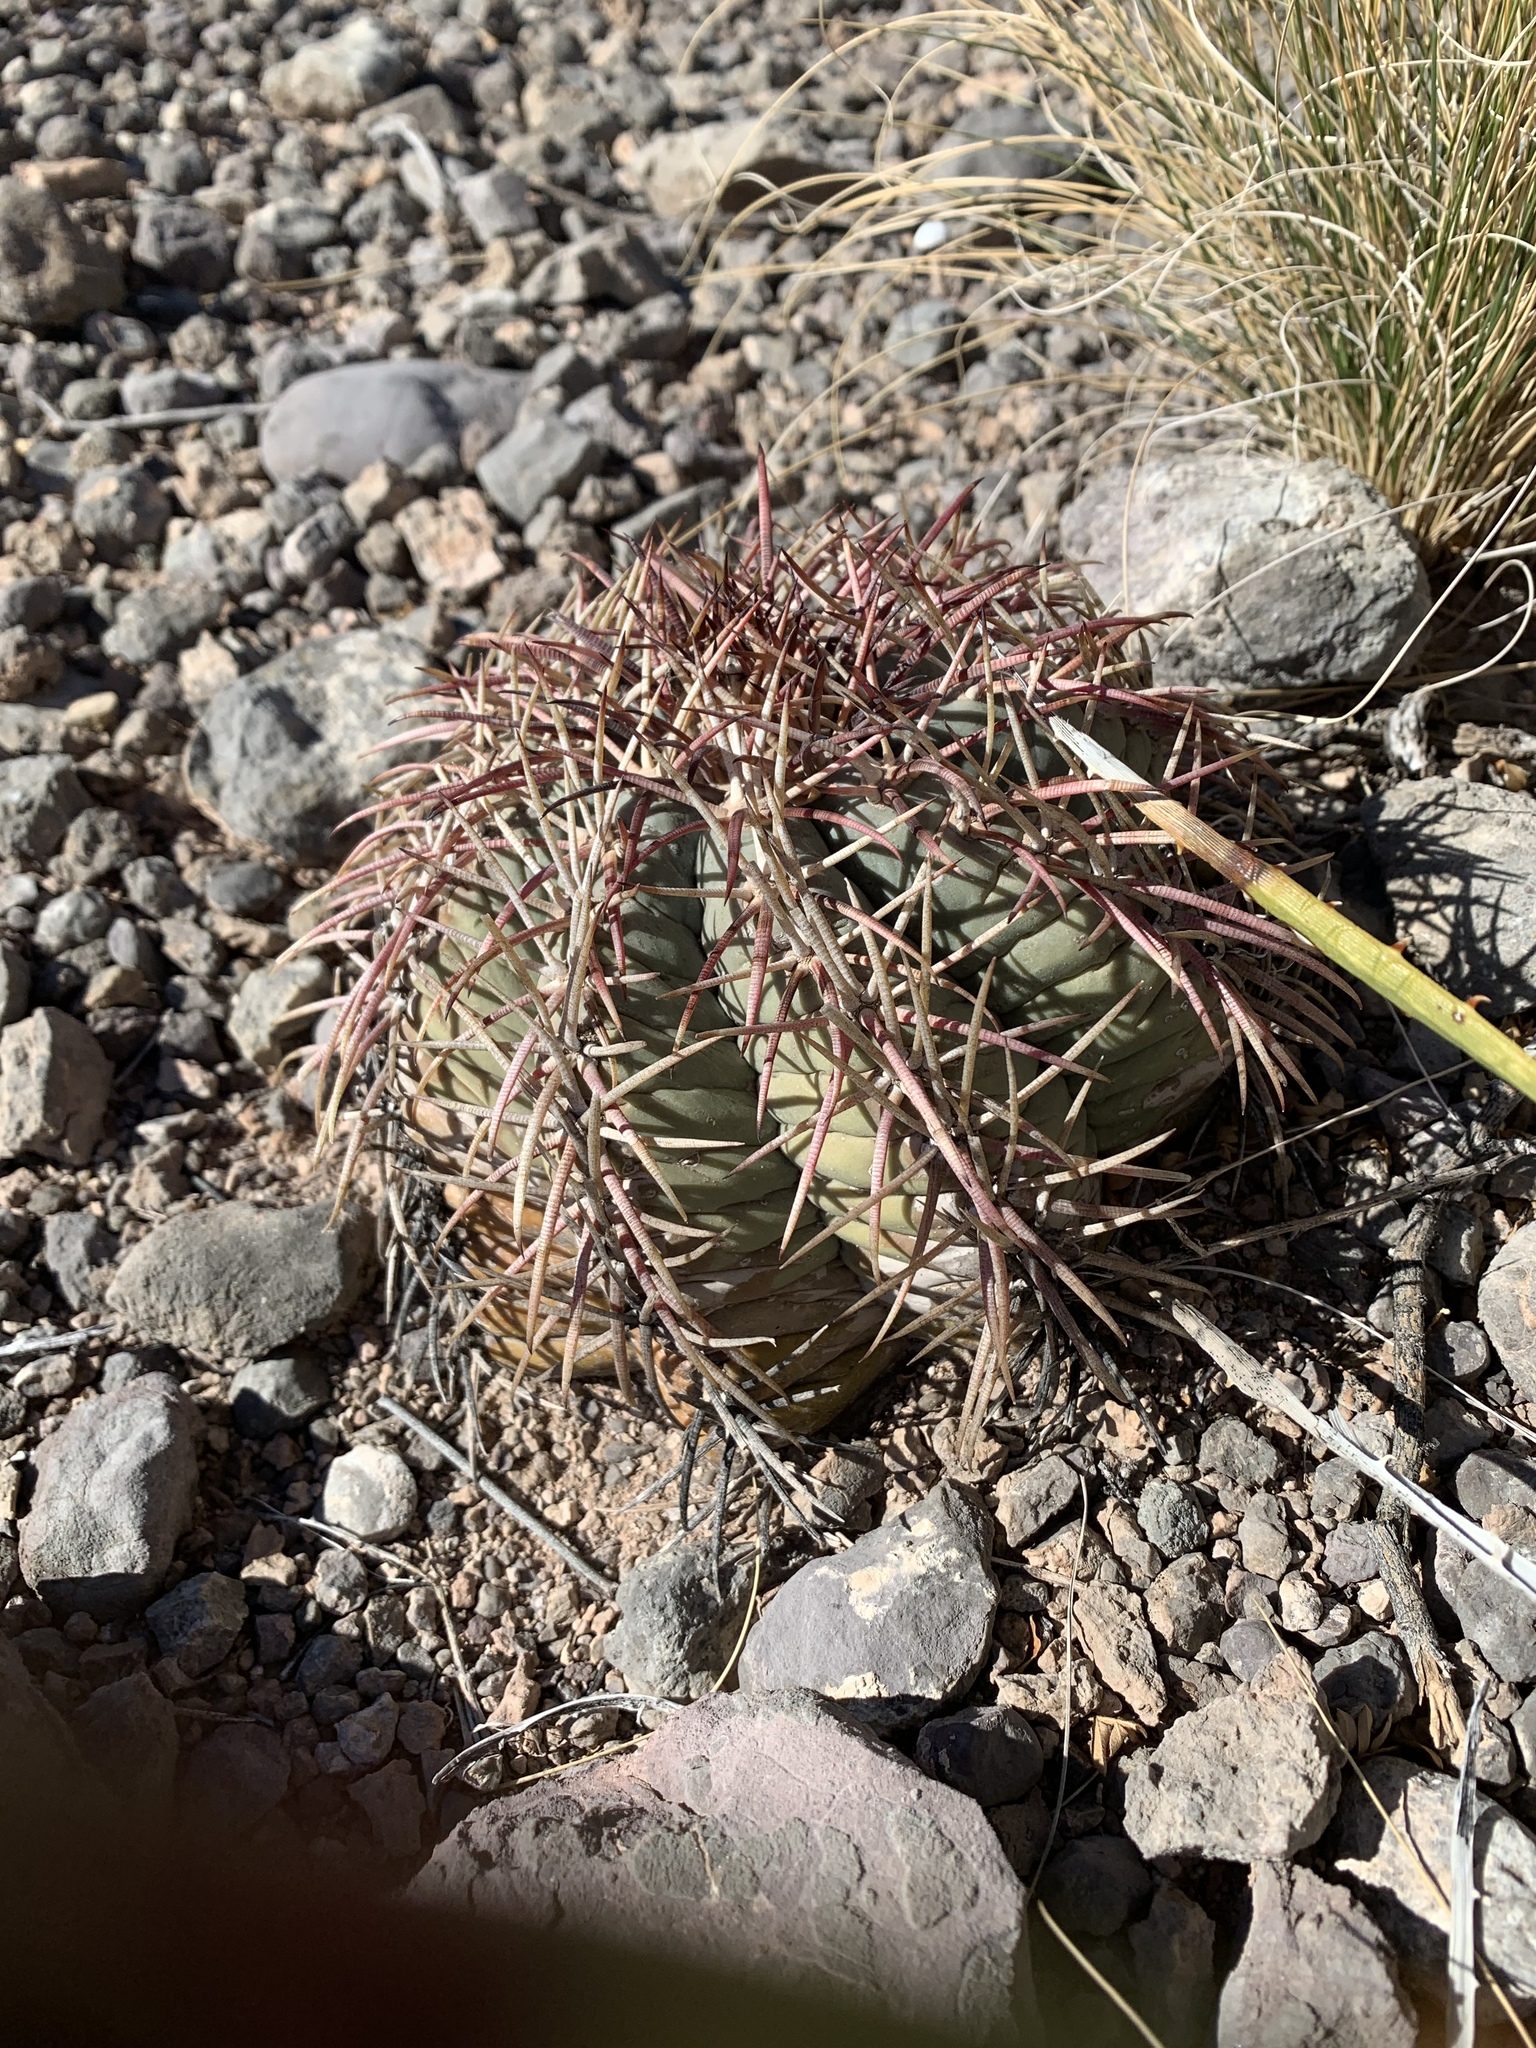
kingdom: Plantae
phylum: Tracheophyta
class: Magnoliopsida
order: Caryophyllales
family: Cactaceae
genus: Echinocactus
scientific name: Echinocactus horizonthalonius
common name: Devilshead
